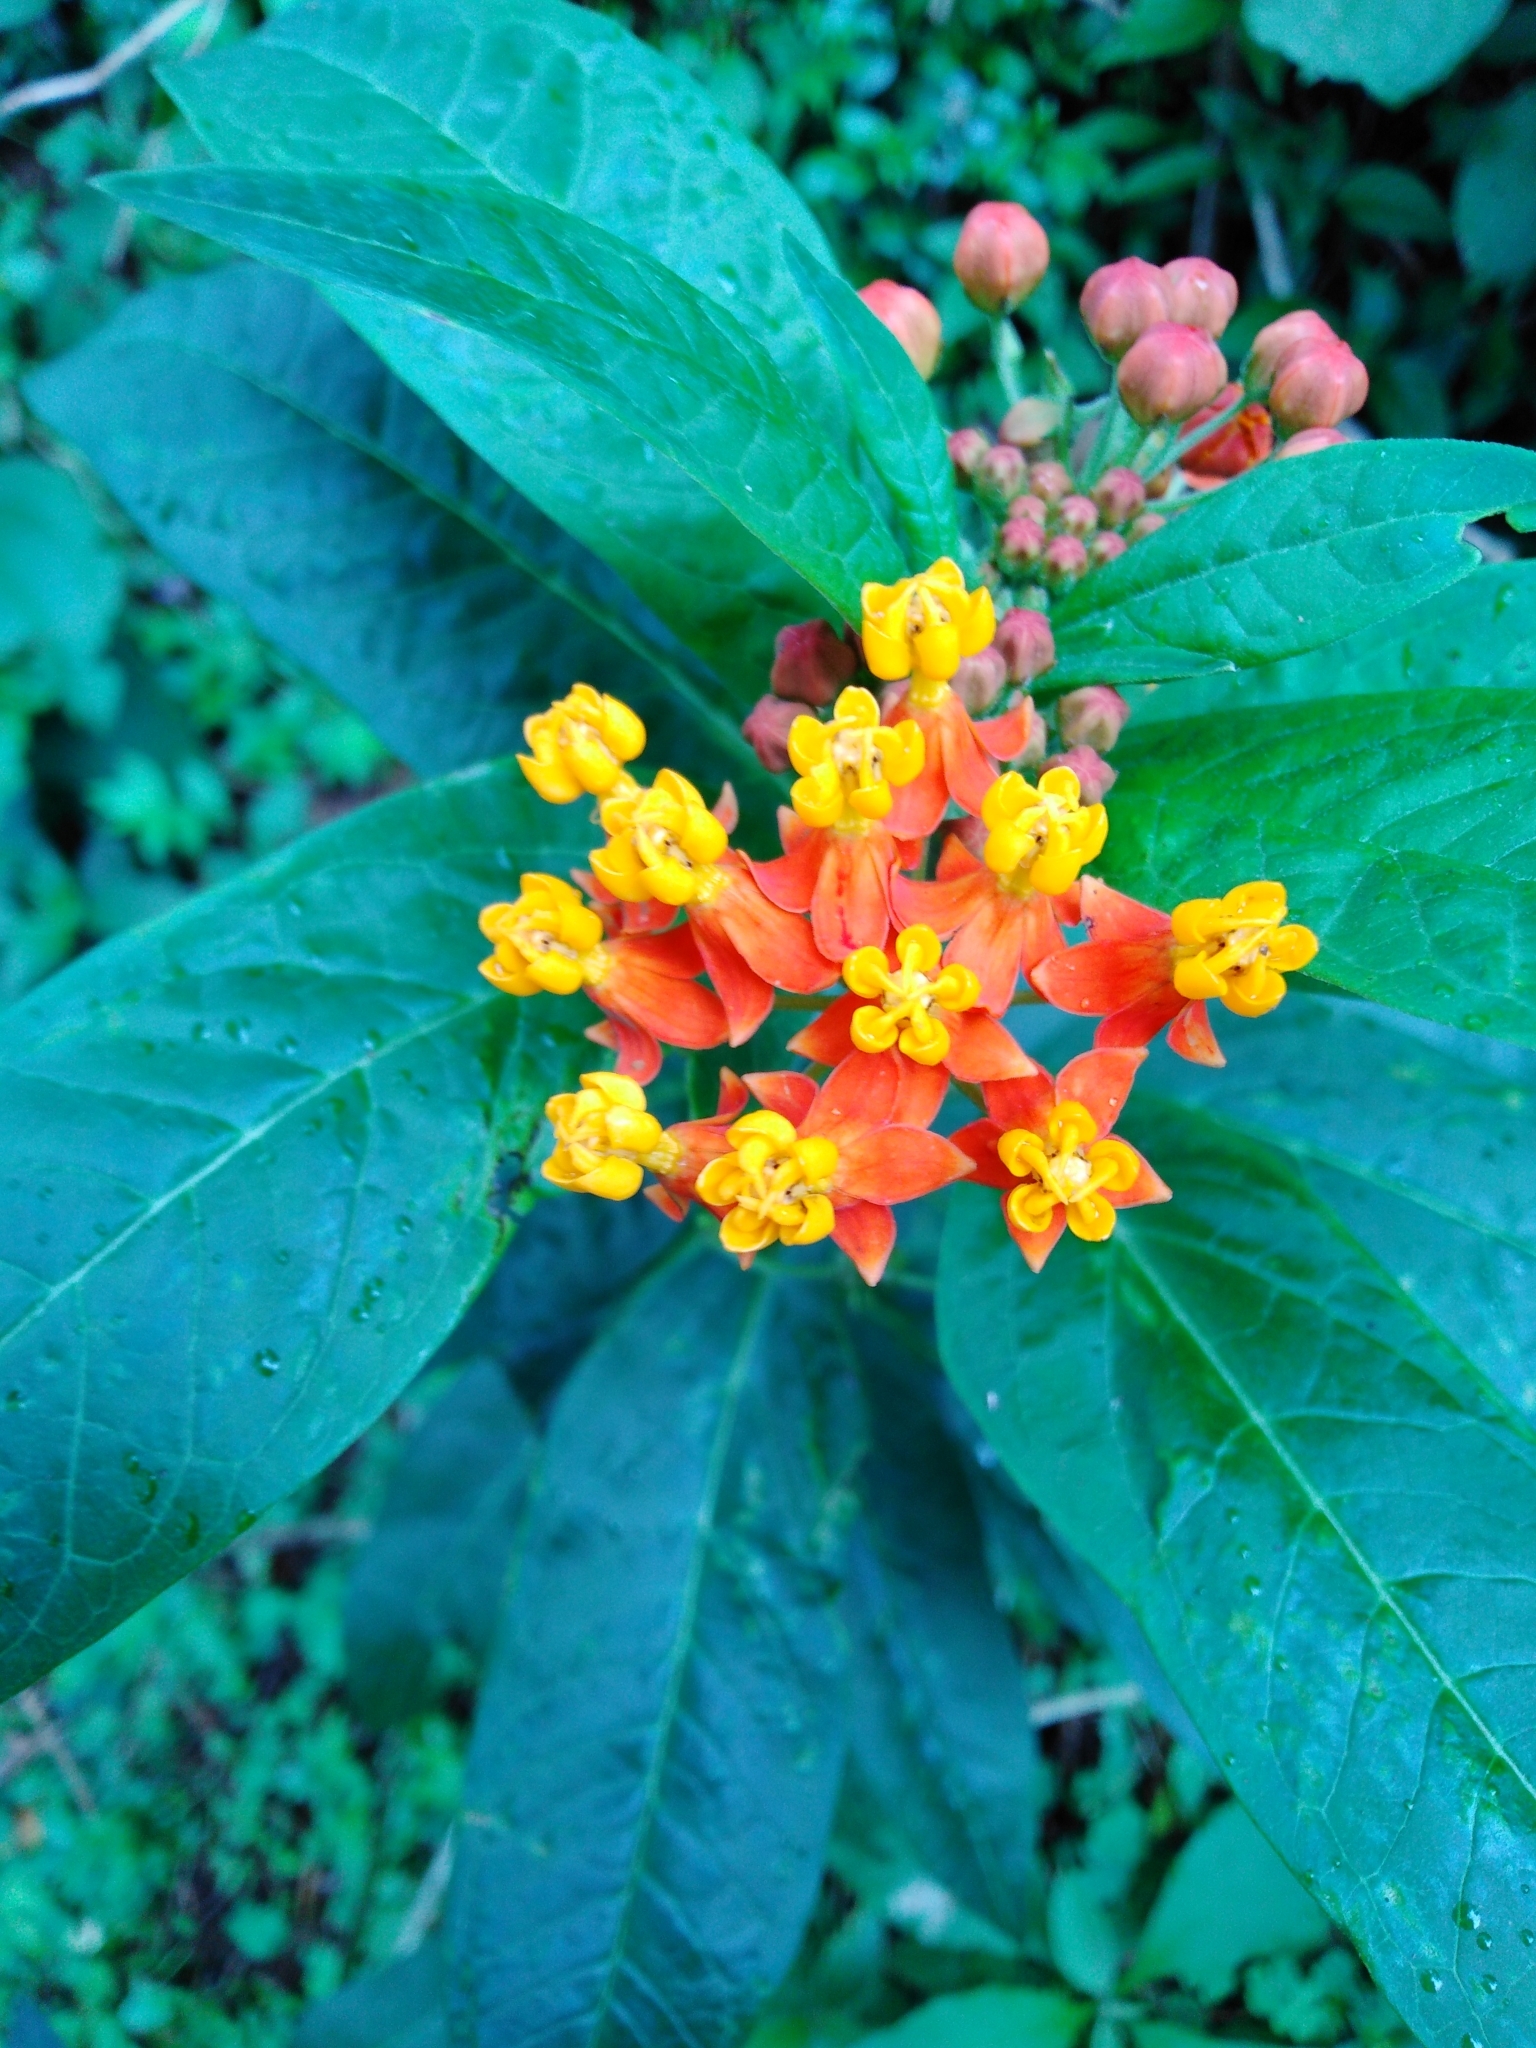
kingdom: Plantae
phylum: Tracheophyta
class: Magnoliopsida
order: Gentianales
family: Apocynaceae
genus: Asclepias
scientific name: Asclepias curassavica
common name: Bloodflower
